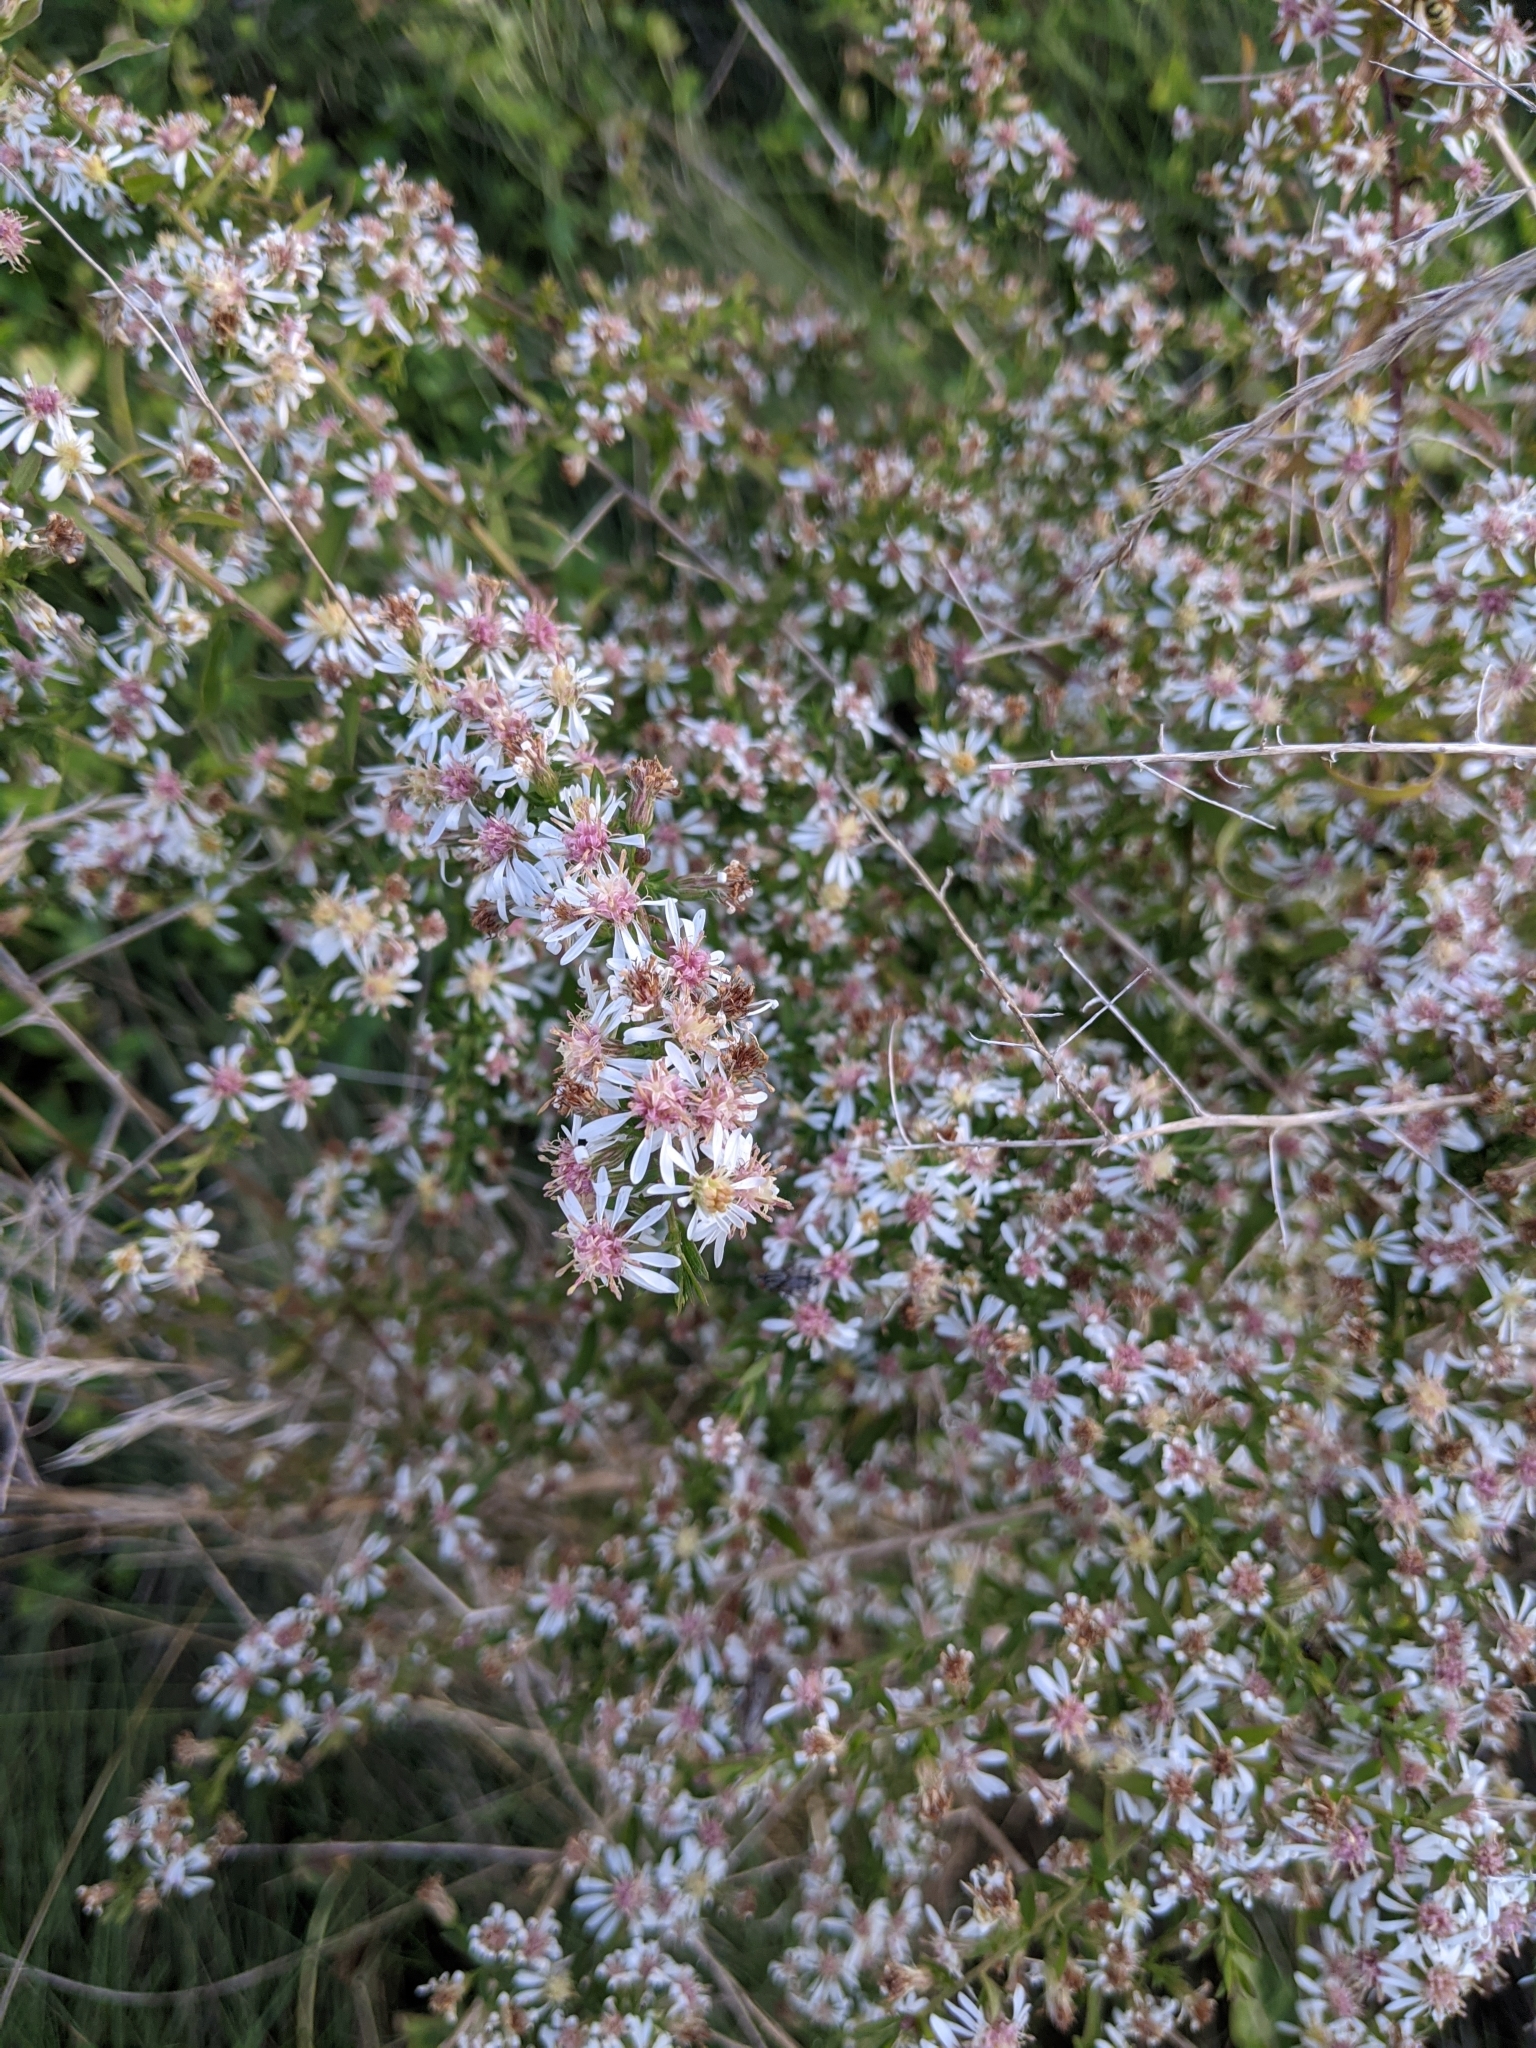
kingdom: Plantae
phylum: Tracheophyta
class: Magnoliopsida
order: Asterales
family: Asteraceae
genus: Symphyotrichum
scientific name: Symphyotrichum lateriflorum
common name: Calico aster
